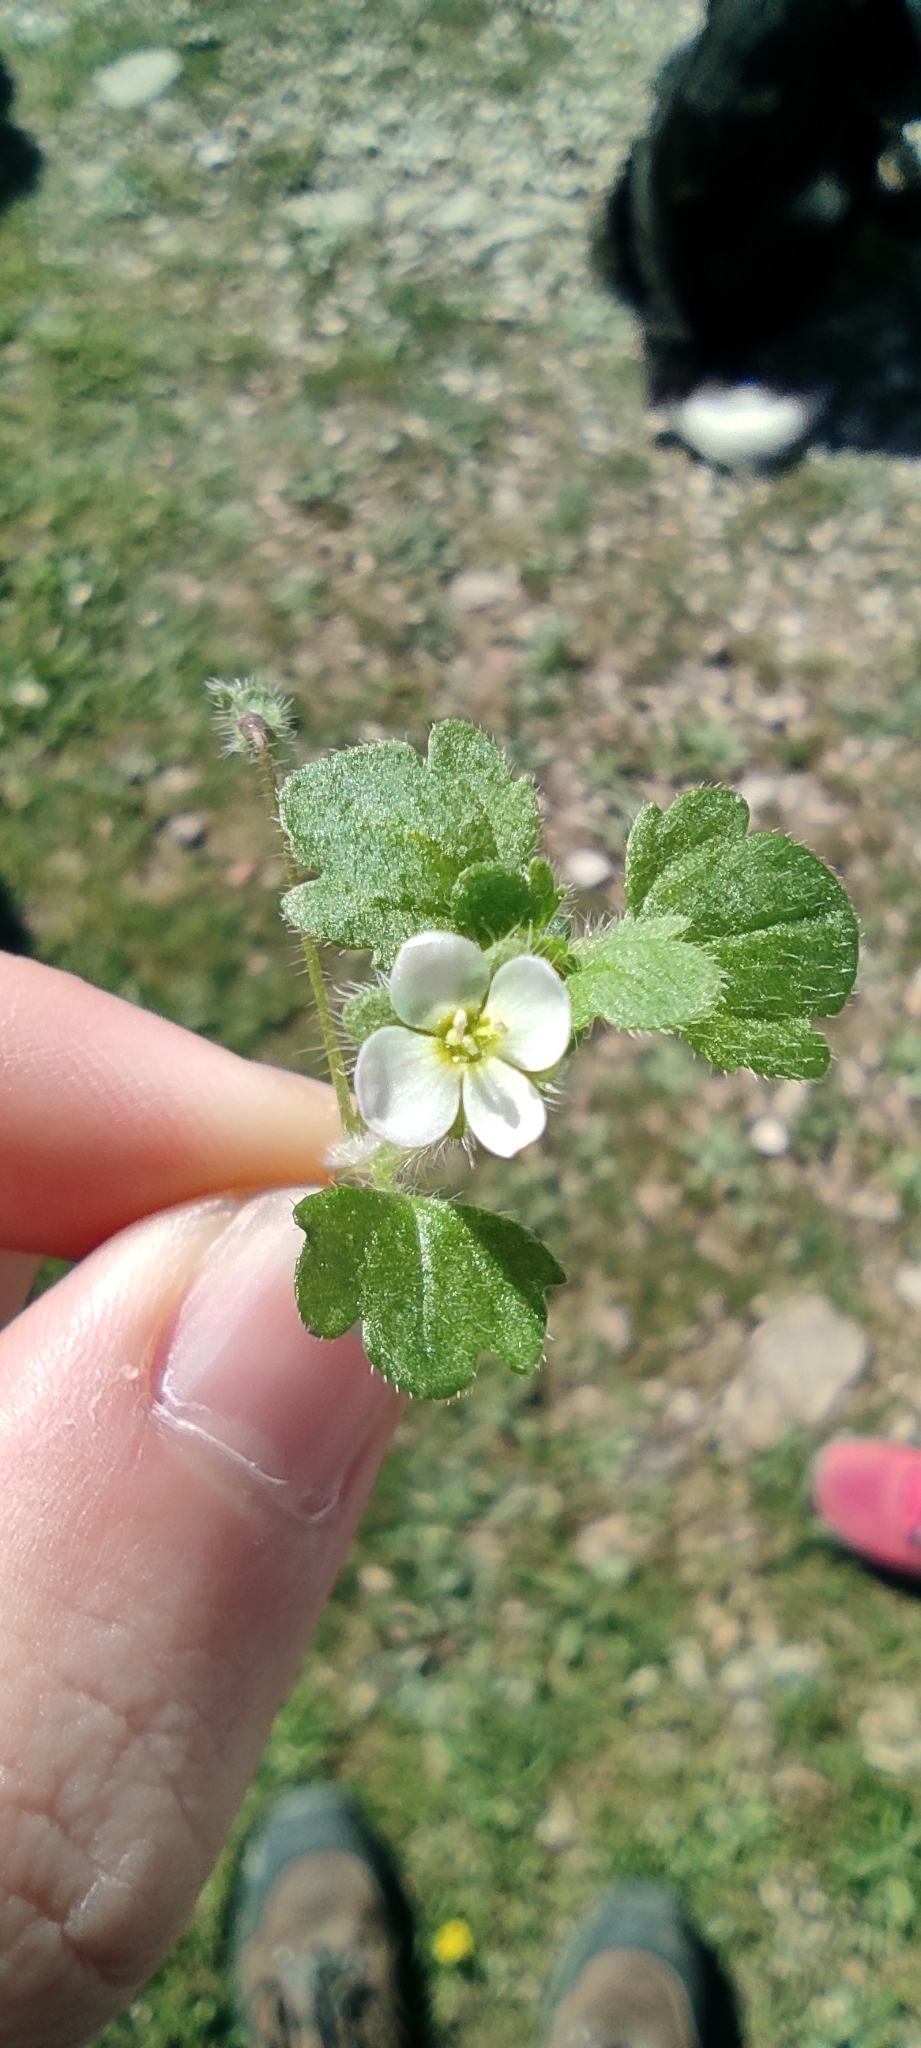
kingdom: Plantae
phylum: Tracheophyta
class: Magnoliopsida
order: Lamiales
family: Plantaginaceae
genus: Veronica
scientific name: Veronica cymbalaria
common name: Pale speedwell
